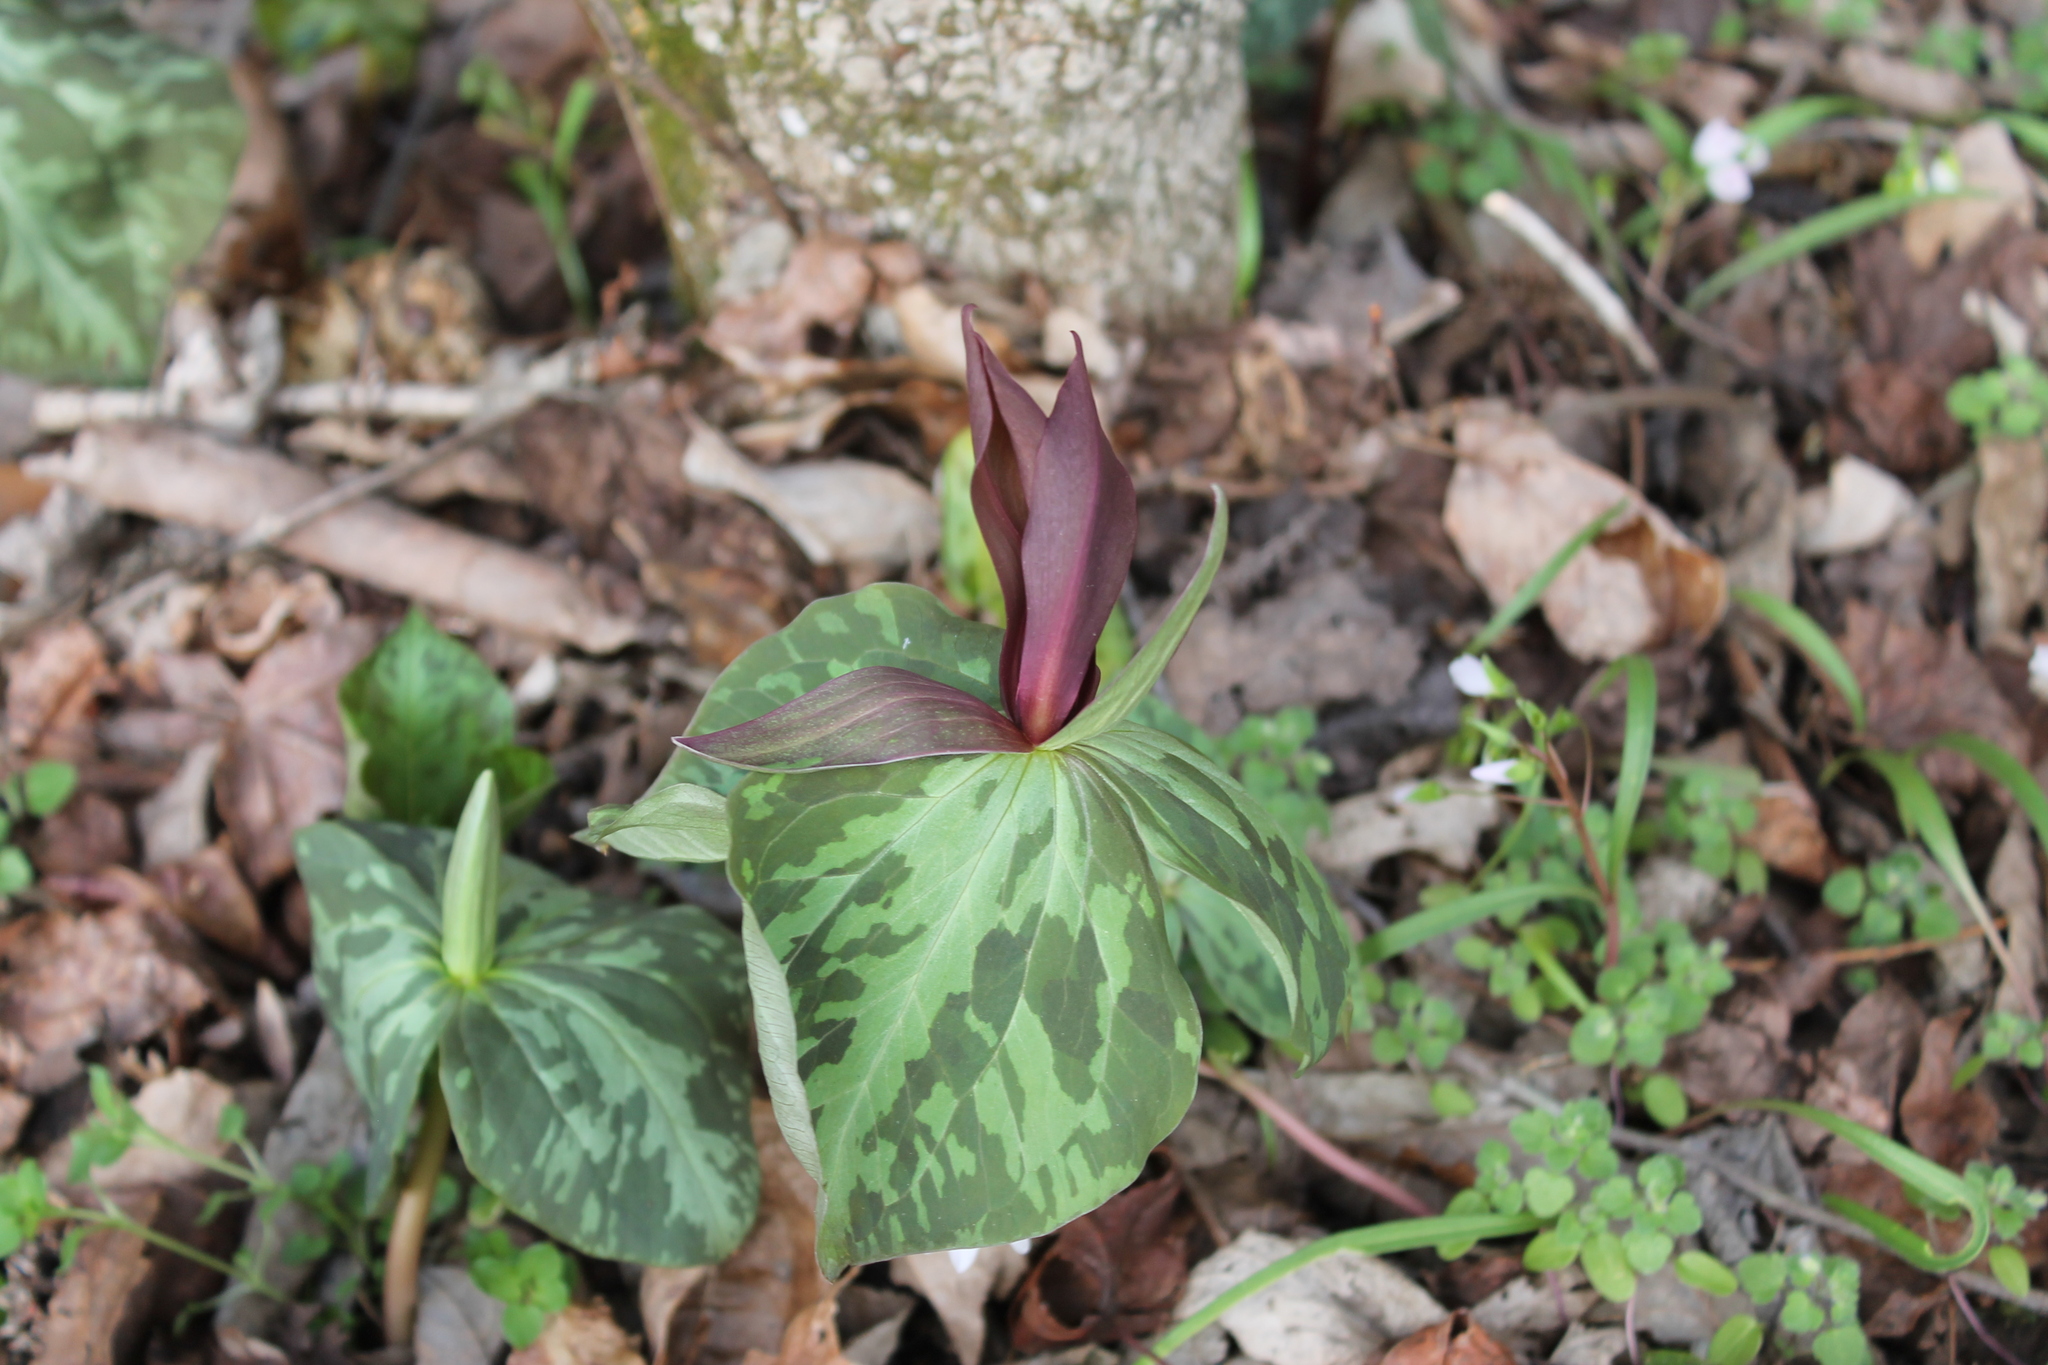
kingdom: Plantae
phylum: Tracheophyta
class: Liliopsida
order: Liliales
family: Melanthiaceae
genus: Trillium
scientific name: Trillium cuneatum
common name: Cuneate trillium
